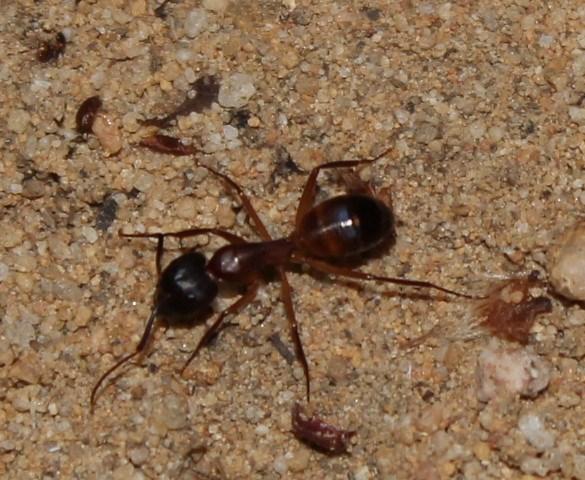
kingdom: Animalia
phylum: Arthropoda
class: Insecta
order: Hymenoptera
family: Formicidae
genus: Camponotus
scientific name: Camponotus thales
